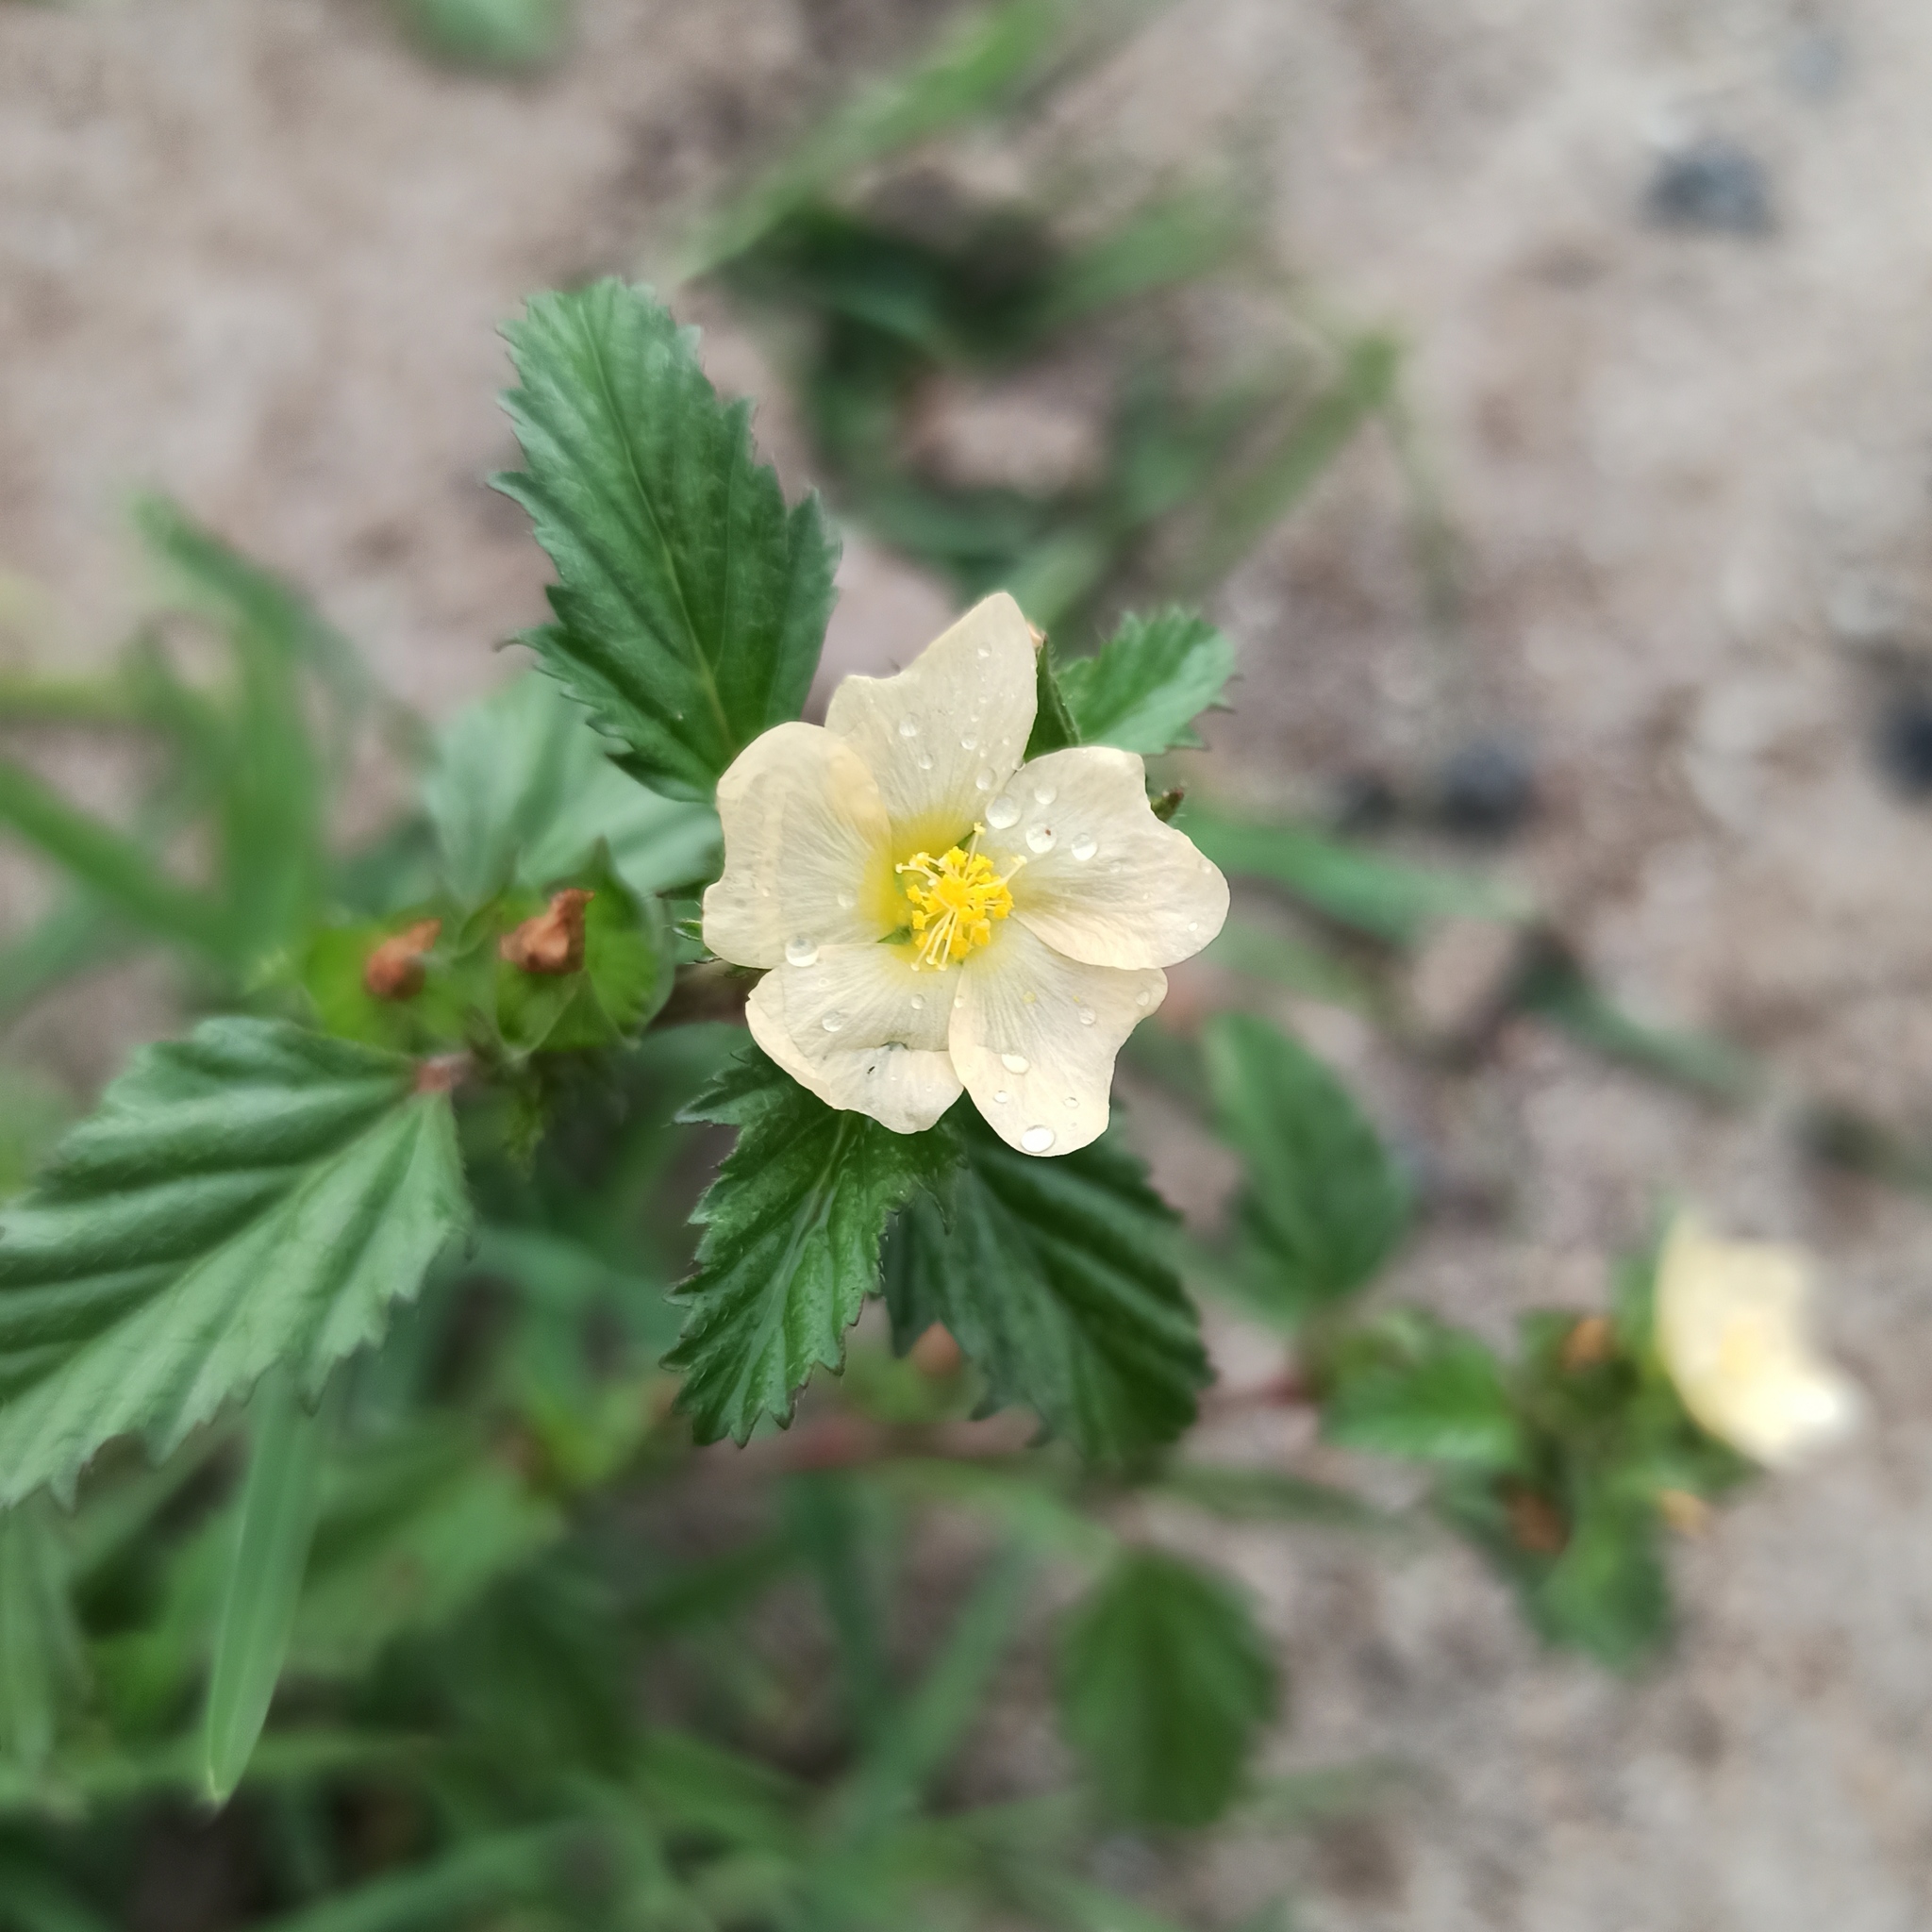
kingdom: Plantae
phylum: Tracheophyta
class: Magnoliopsida
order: Malvales
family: Malvaceae
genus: Malvastrum
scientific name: Malvastrum coromandelianum
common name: Threelobe false mallow
